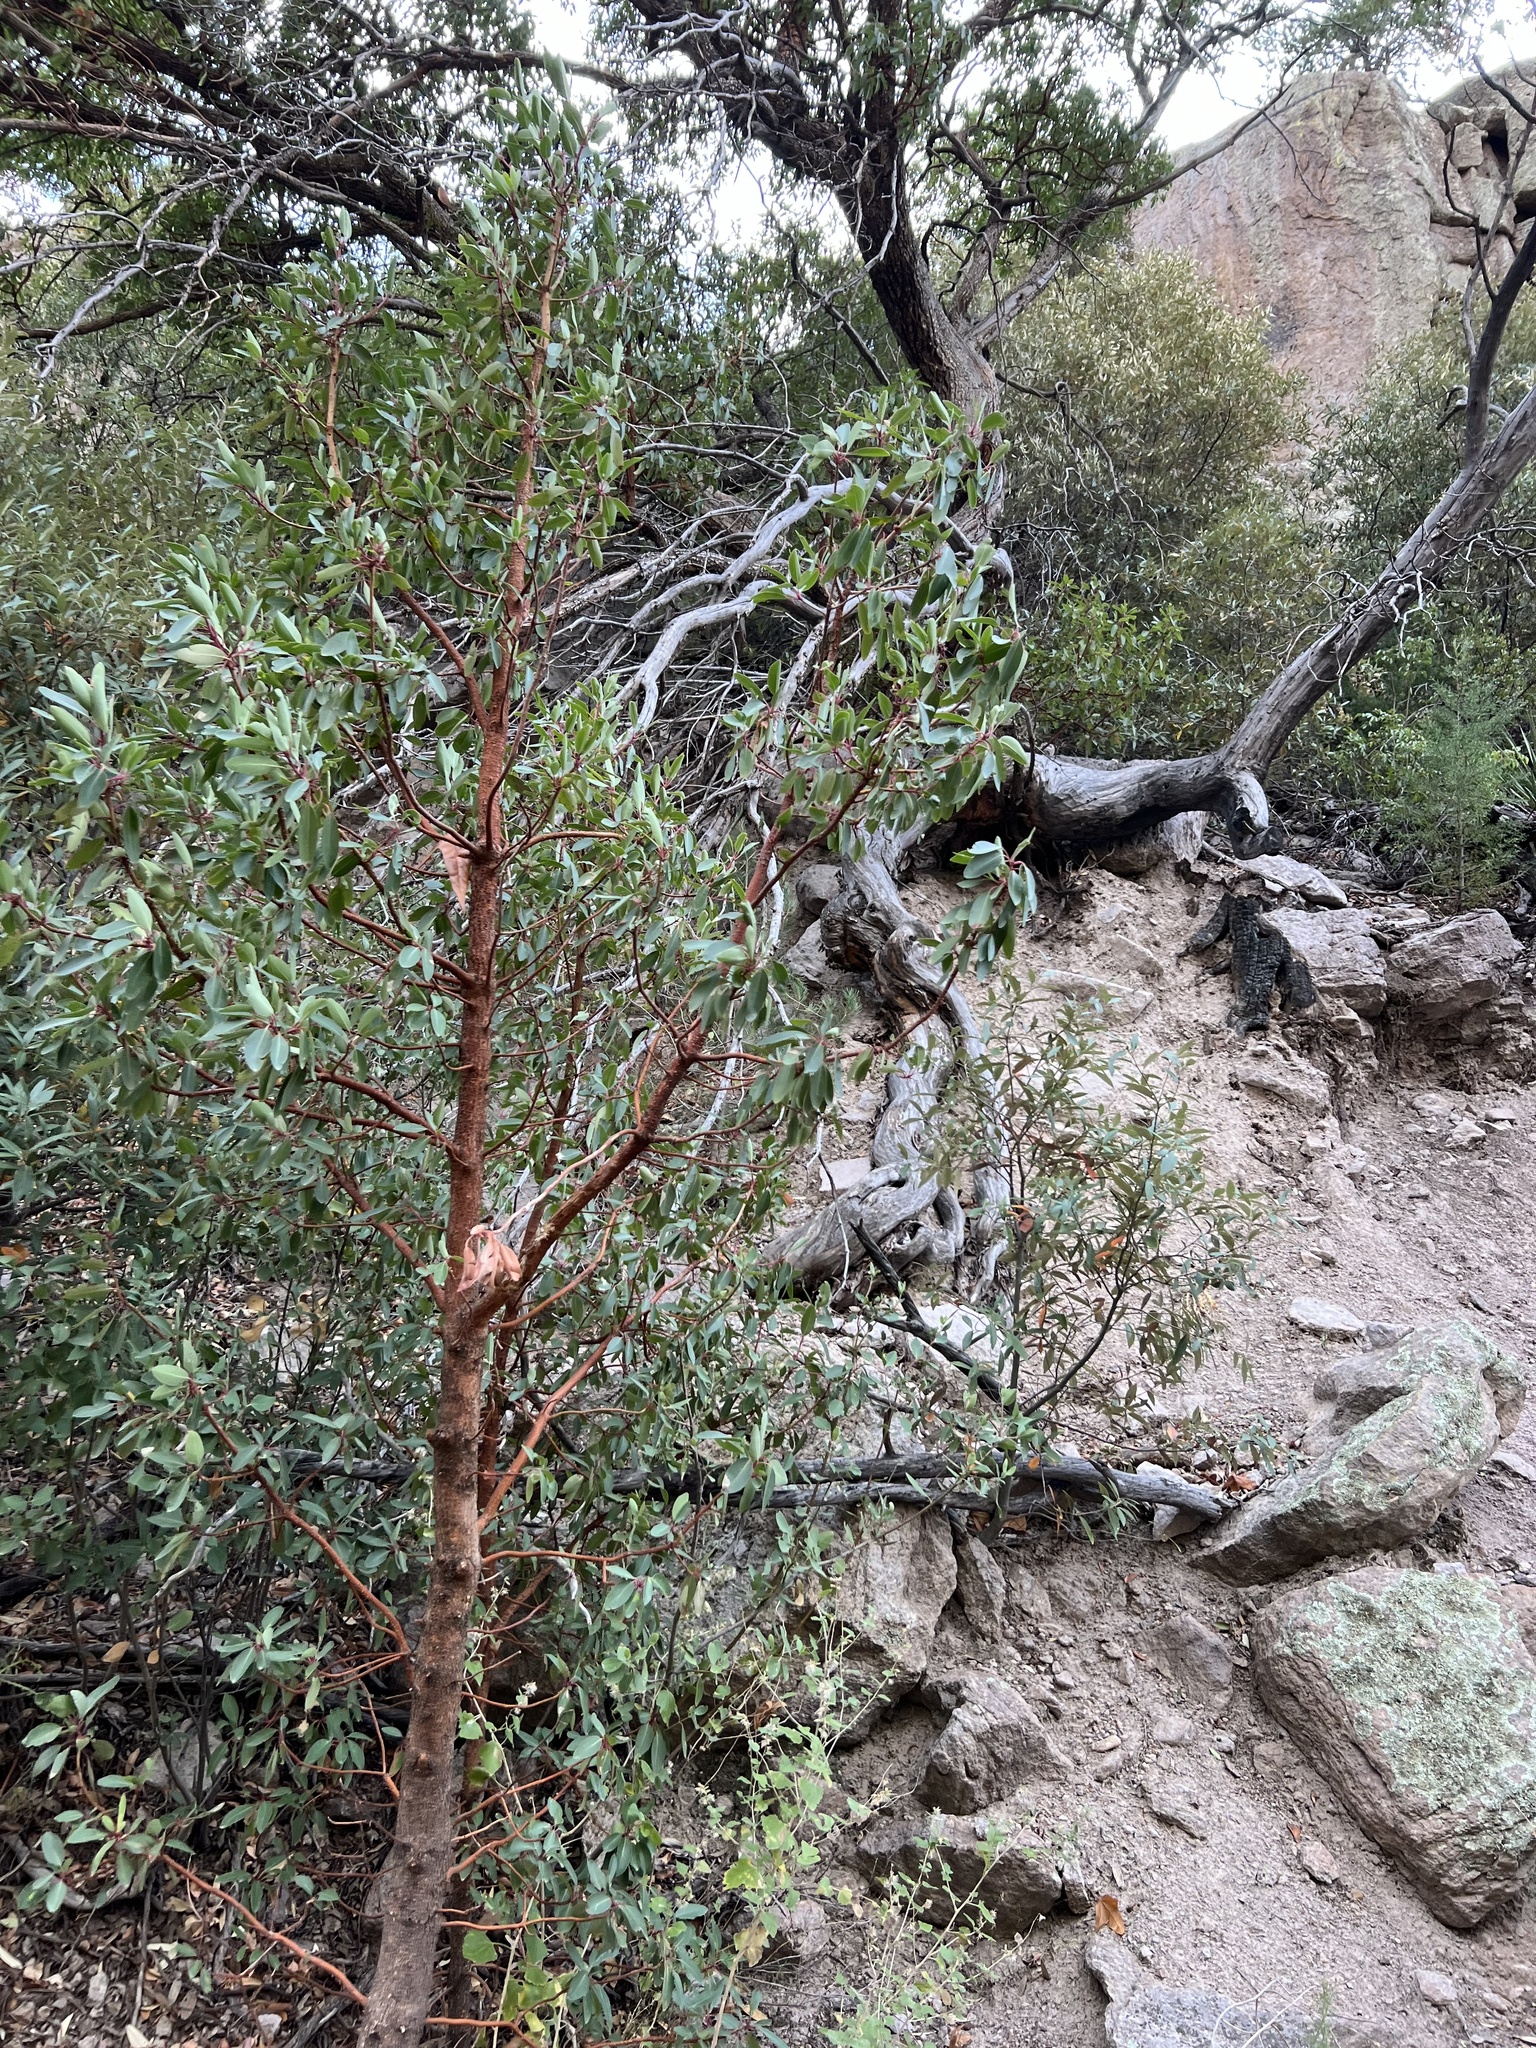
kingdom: Plantae
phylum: Tracheophyta
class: Magnoliopsida
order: Ericales
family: Ericaceae
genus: Arbutus
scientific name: Arbutus arizonica
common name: Arizona madrone
